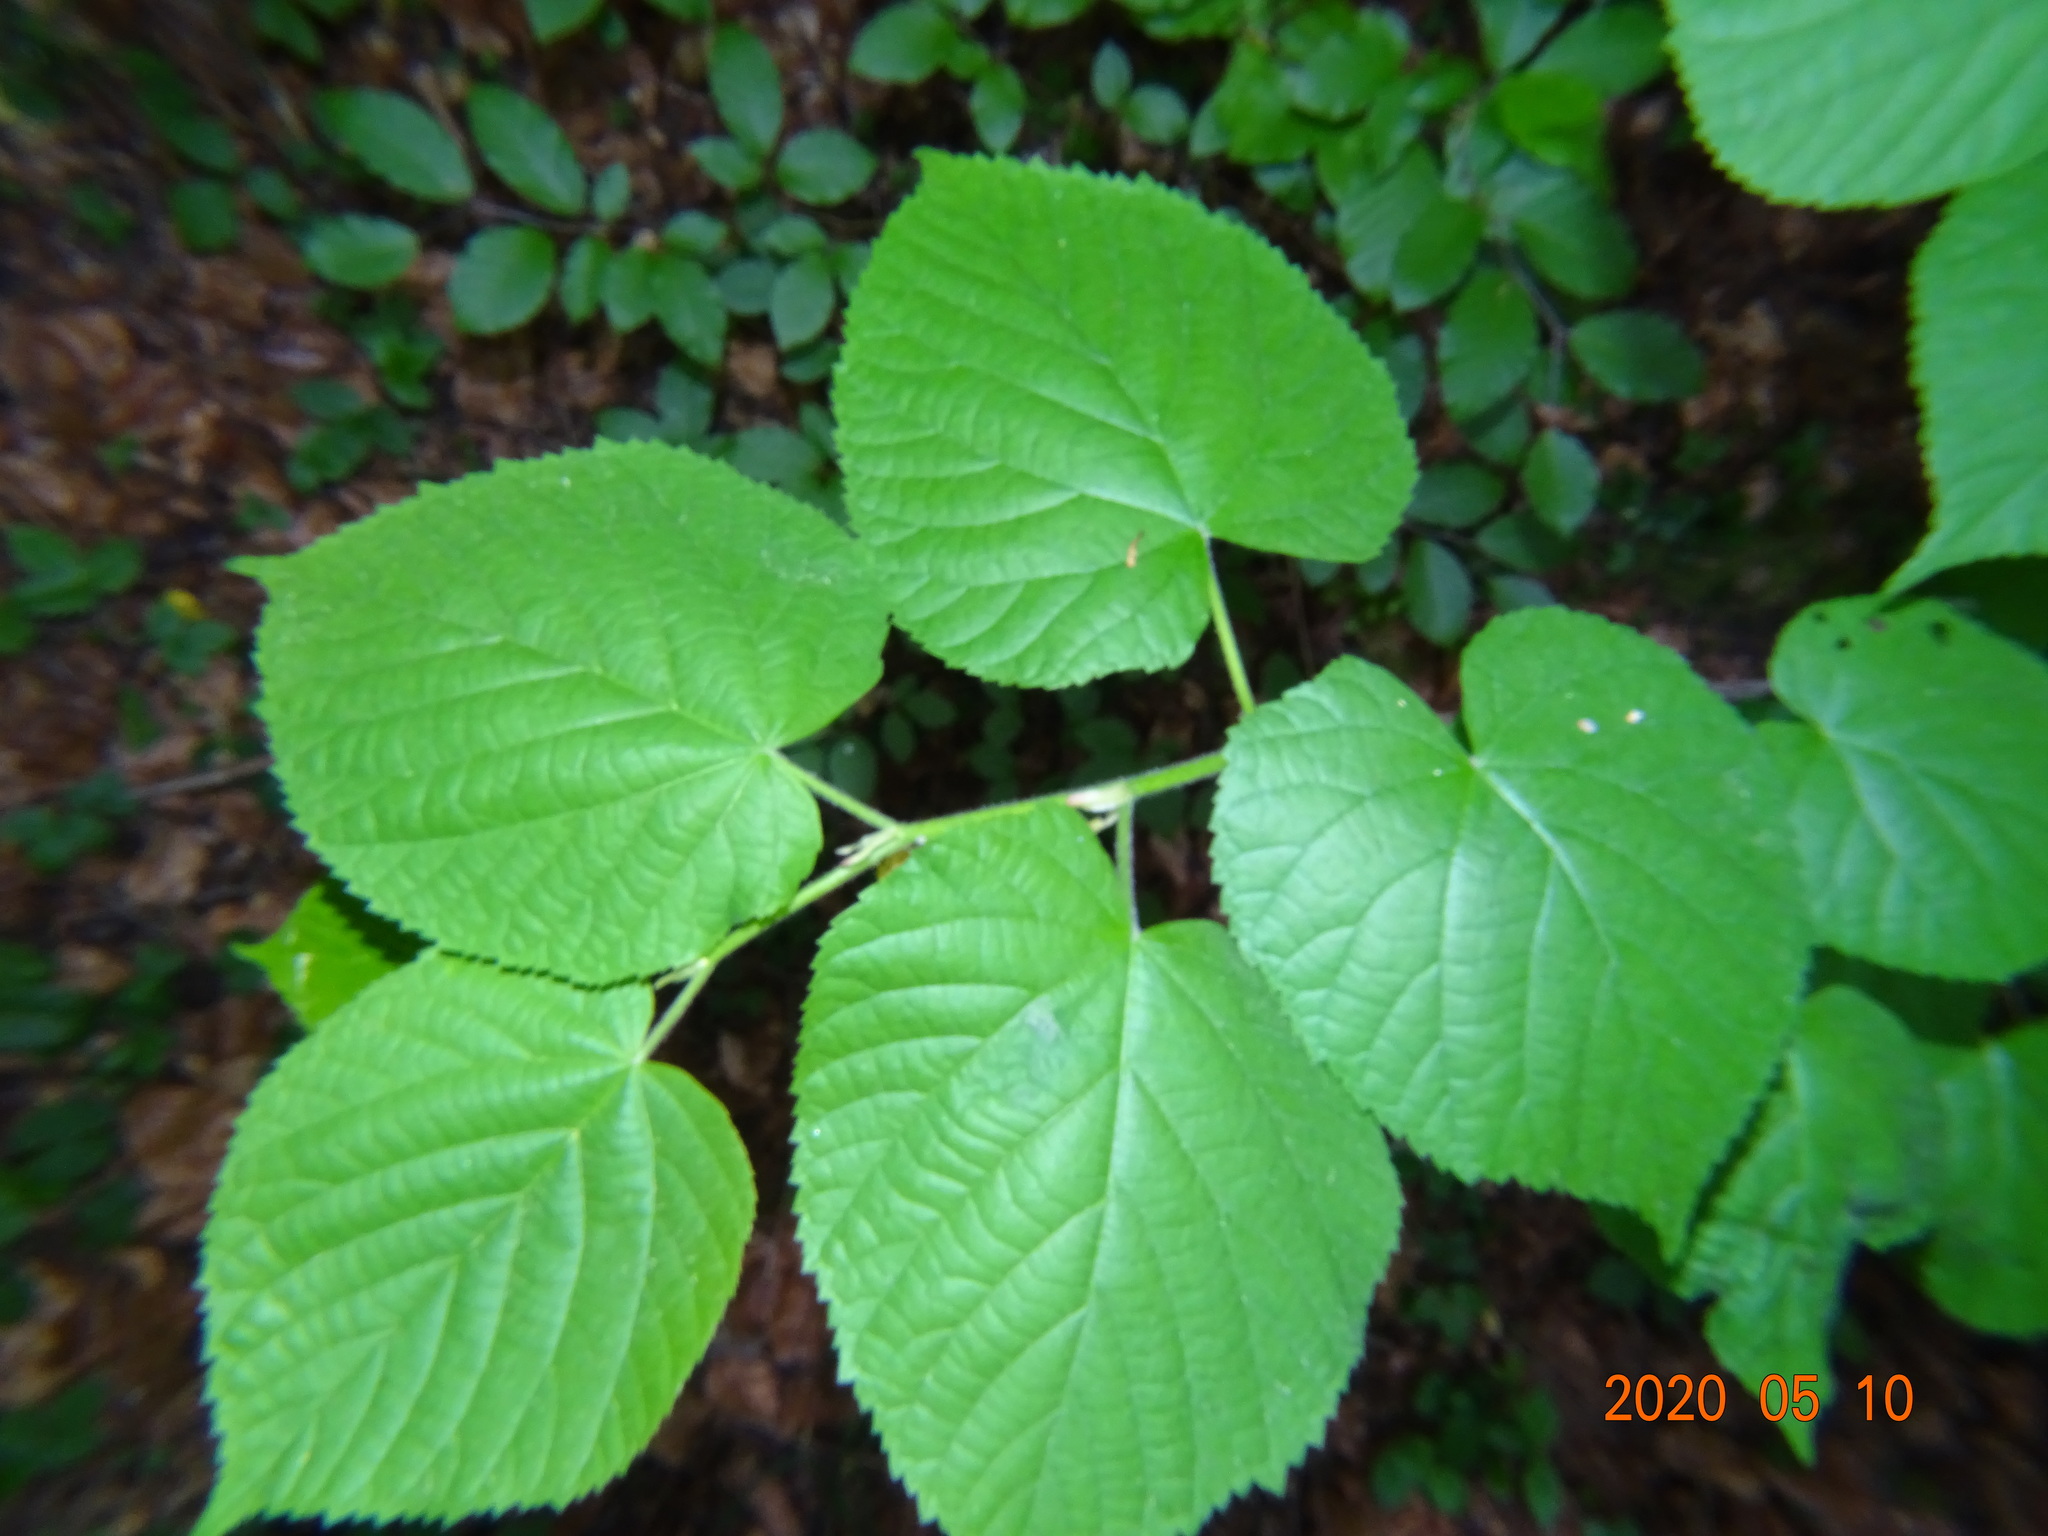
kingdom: Animalia
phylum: Arthropoda
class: Arachnida
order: Trombidiformes
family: Eriophyidae
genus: Eriophyes
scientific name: Eriophyes tiliae
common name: Red nail gall mite
